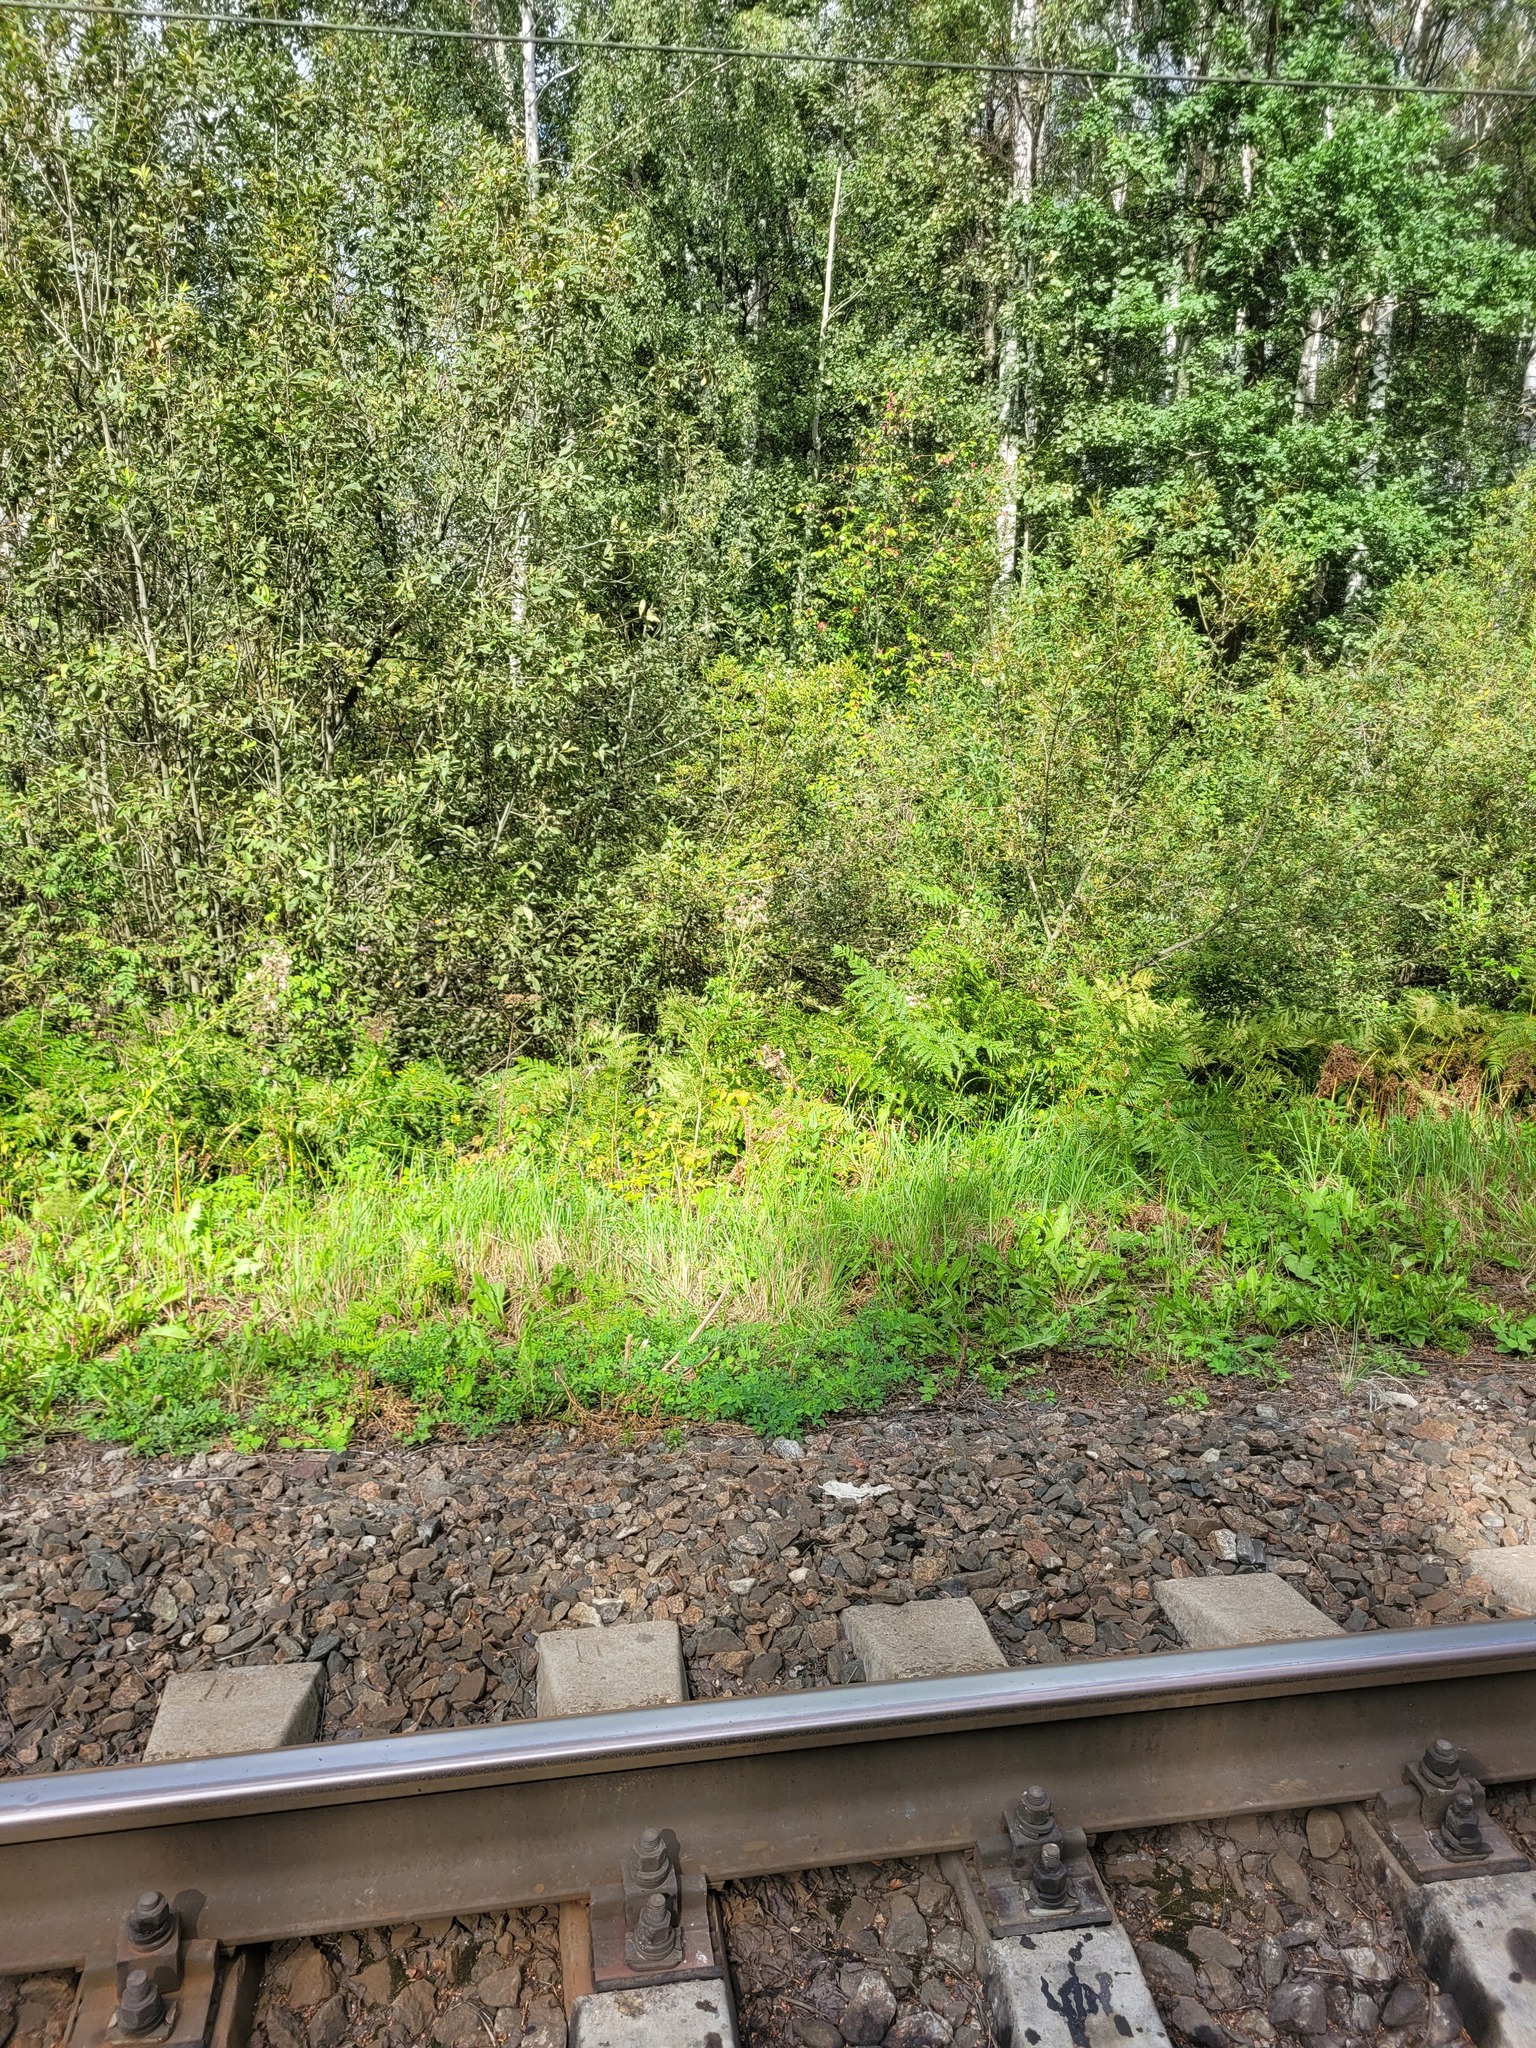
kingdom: Plantae
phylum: Tracheophyta
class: Polypodiopsida
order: Polypodiales
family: Dennstaedtiaceae
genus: Pteridium
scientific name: Pteridium aquilinum
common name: Bracken
